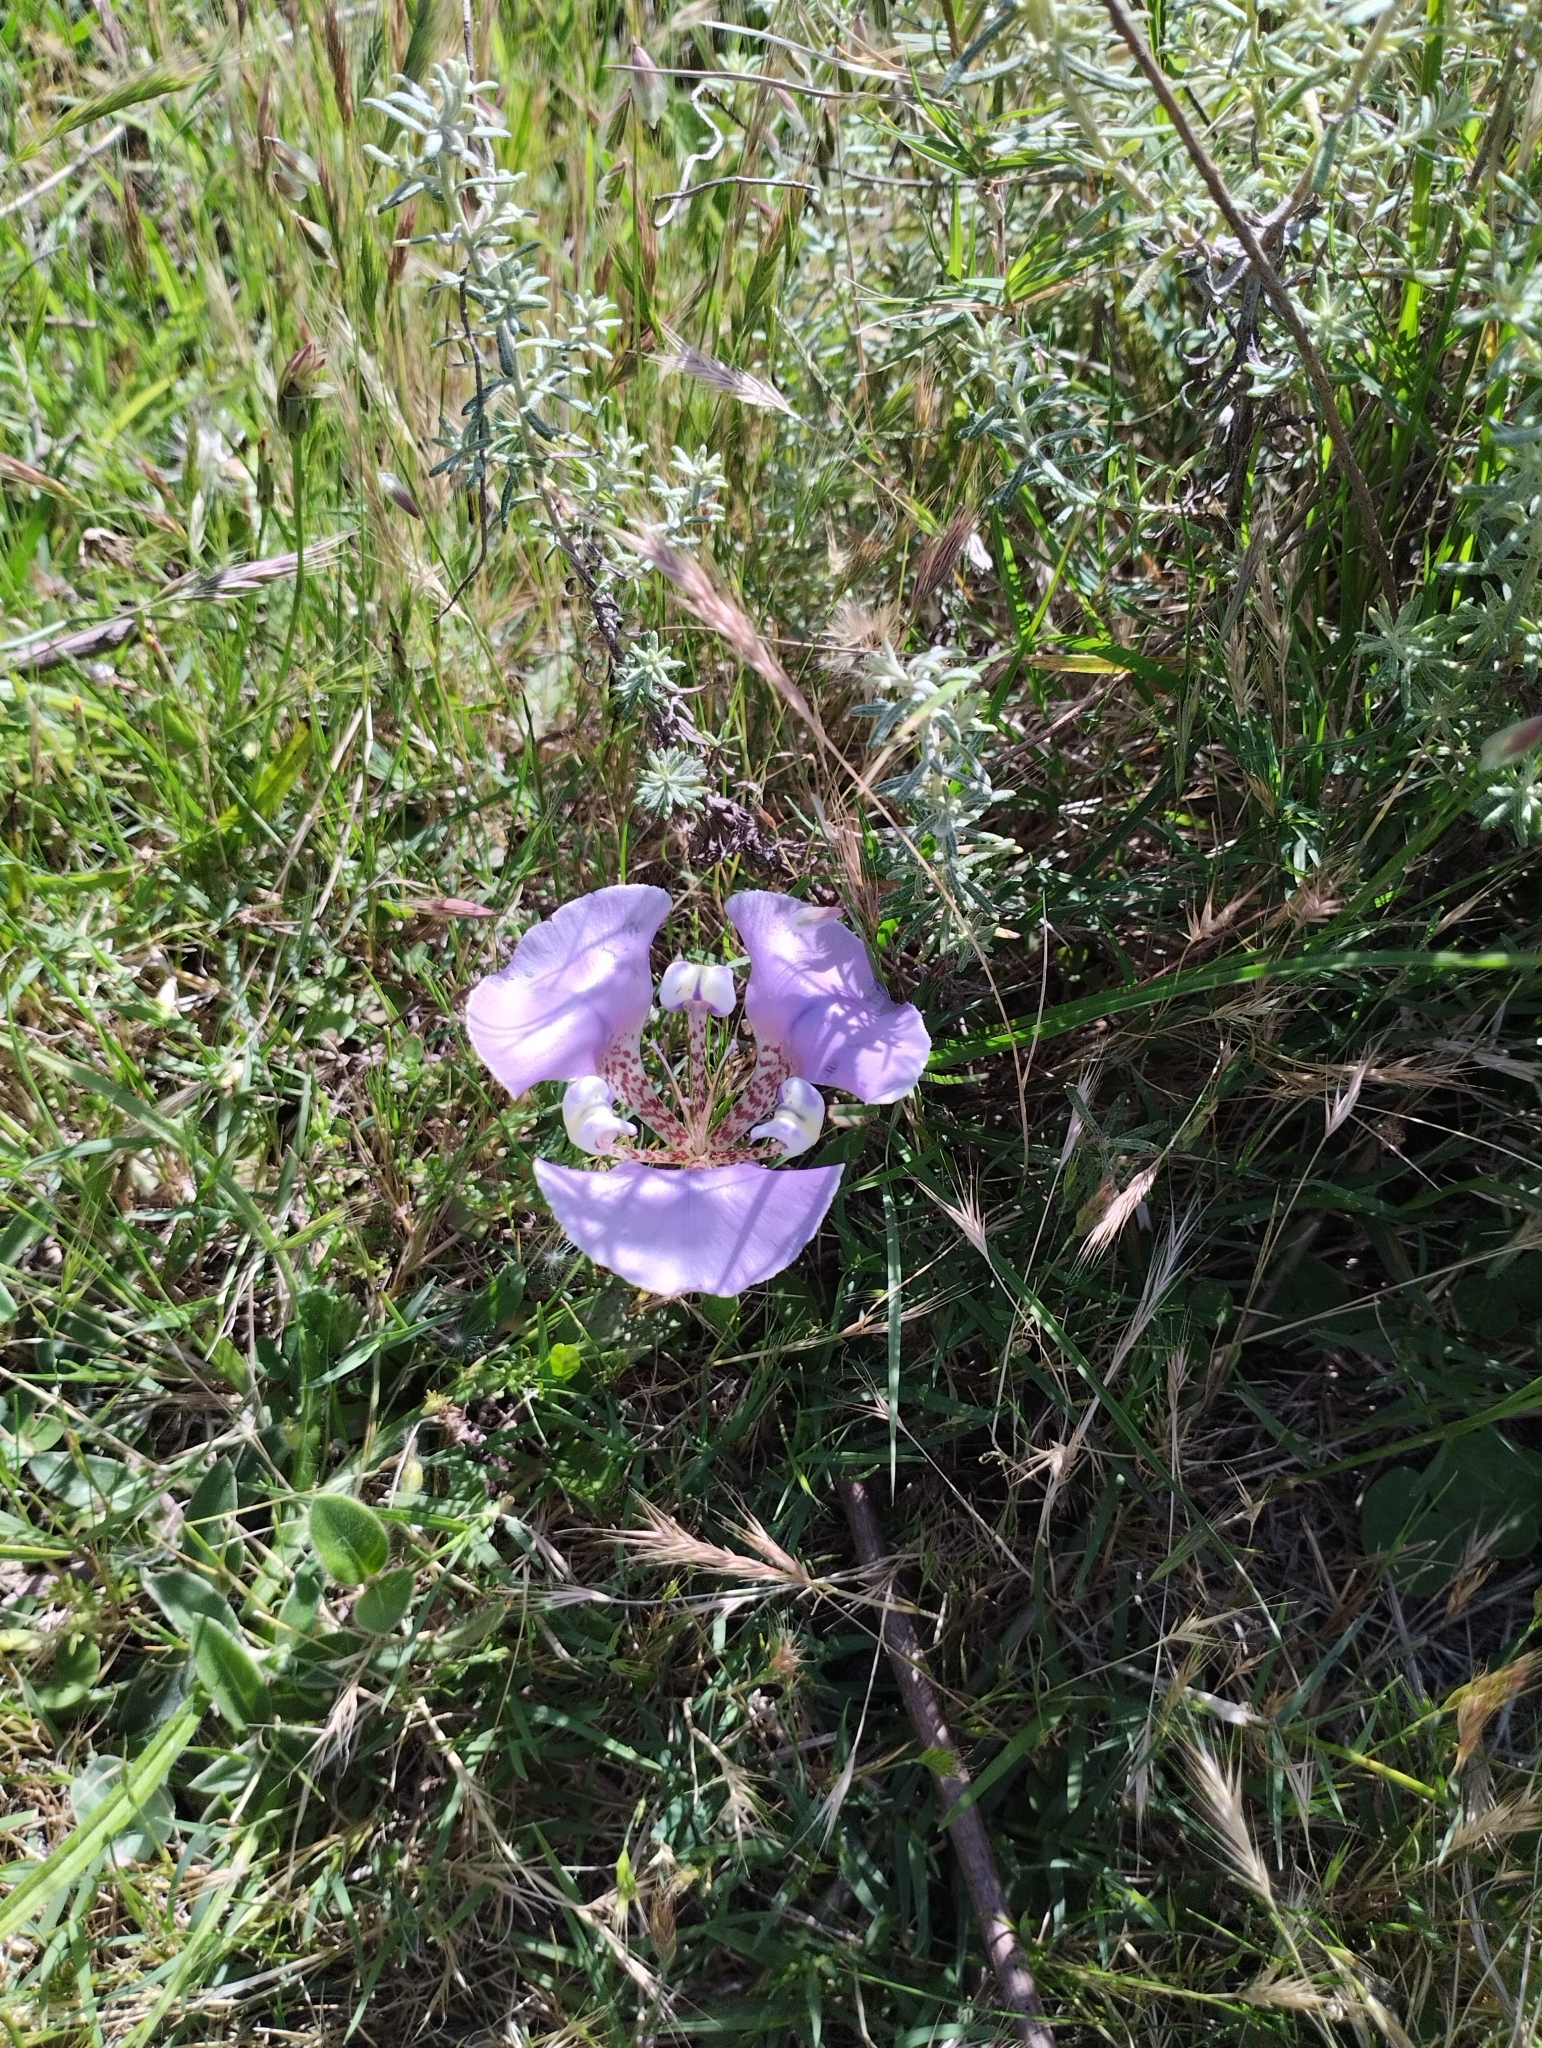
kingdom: Plantae
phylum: Tracheophyta
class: Liliopsida
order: Asparagales
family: Iridaceae
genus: Cypella
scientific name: Cypella unguiculata
